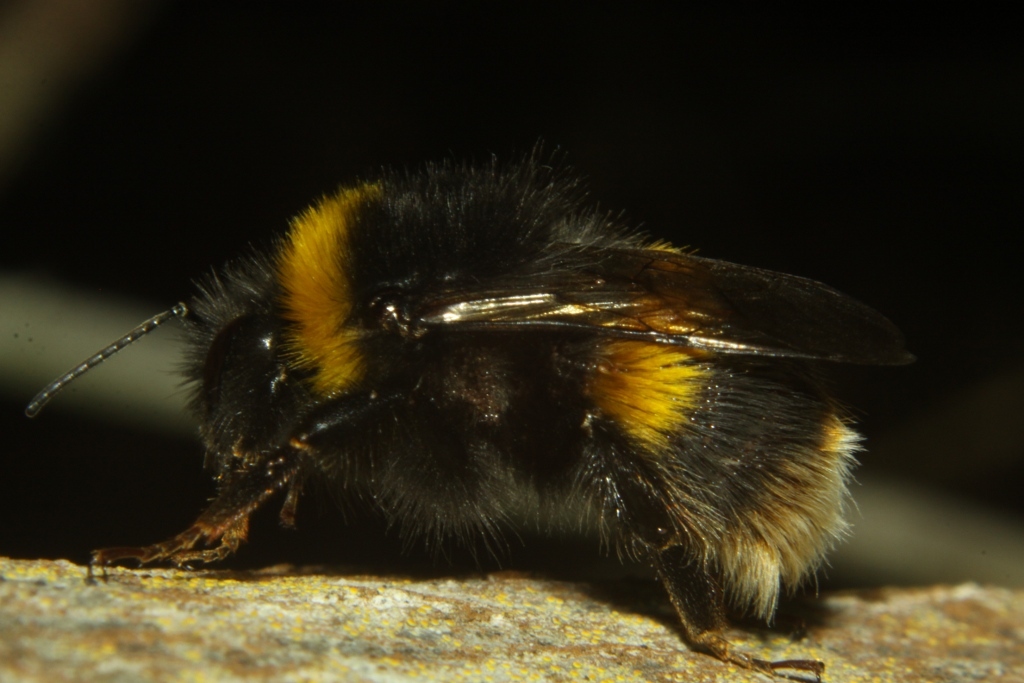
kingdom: Animalia
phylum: Arthropoda
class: Insecta
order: Hymenoptera
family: Apidae
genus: Bombus
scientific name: Bombus terrestris
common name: Buff-tailed bumblebee
